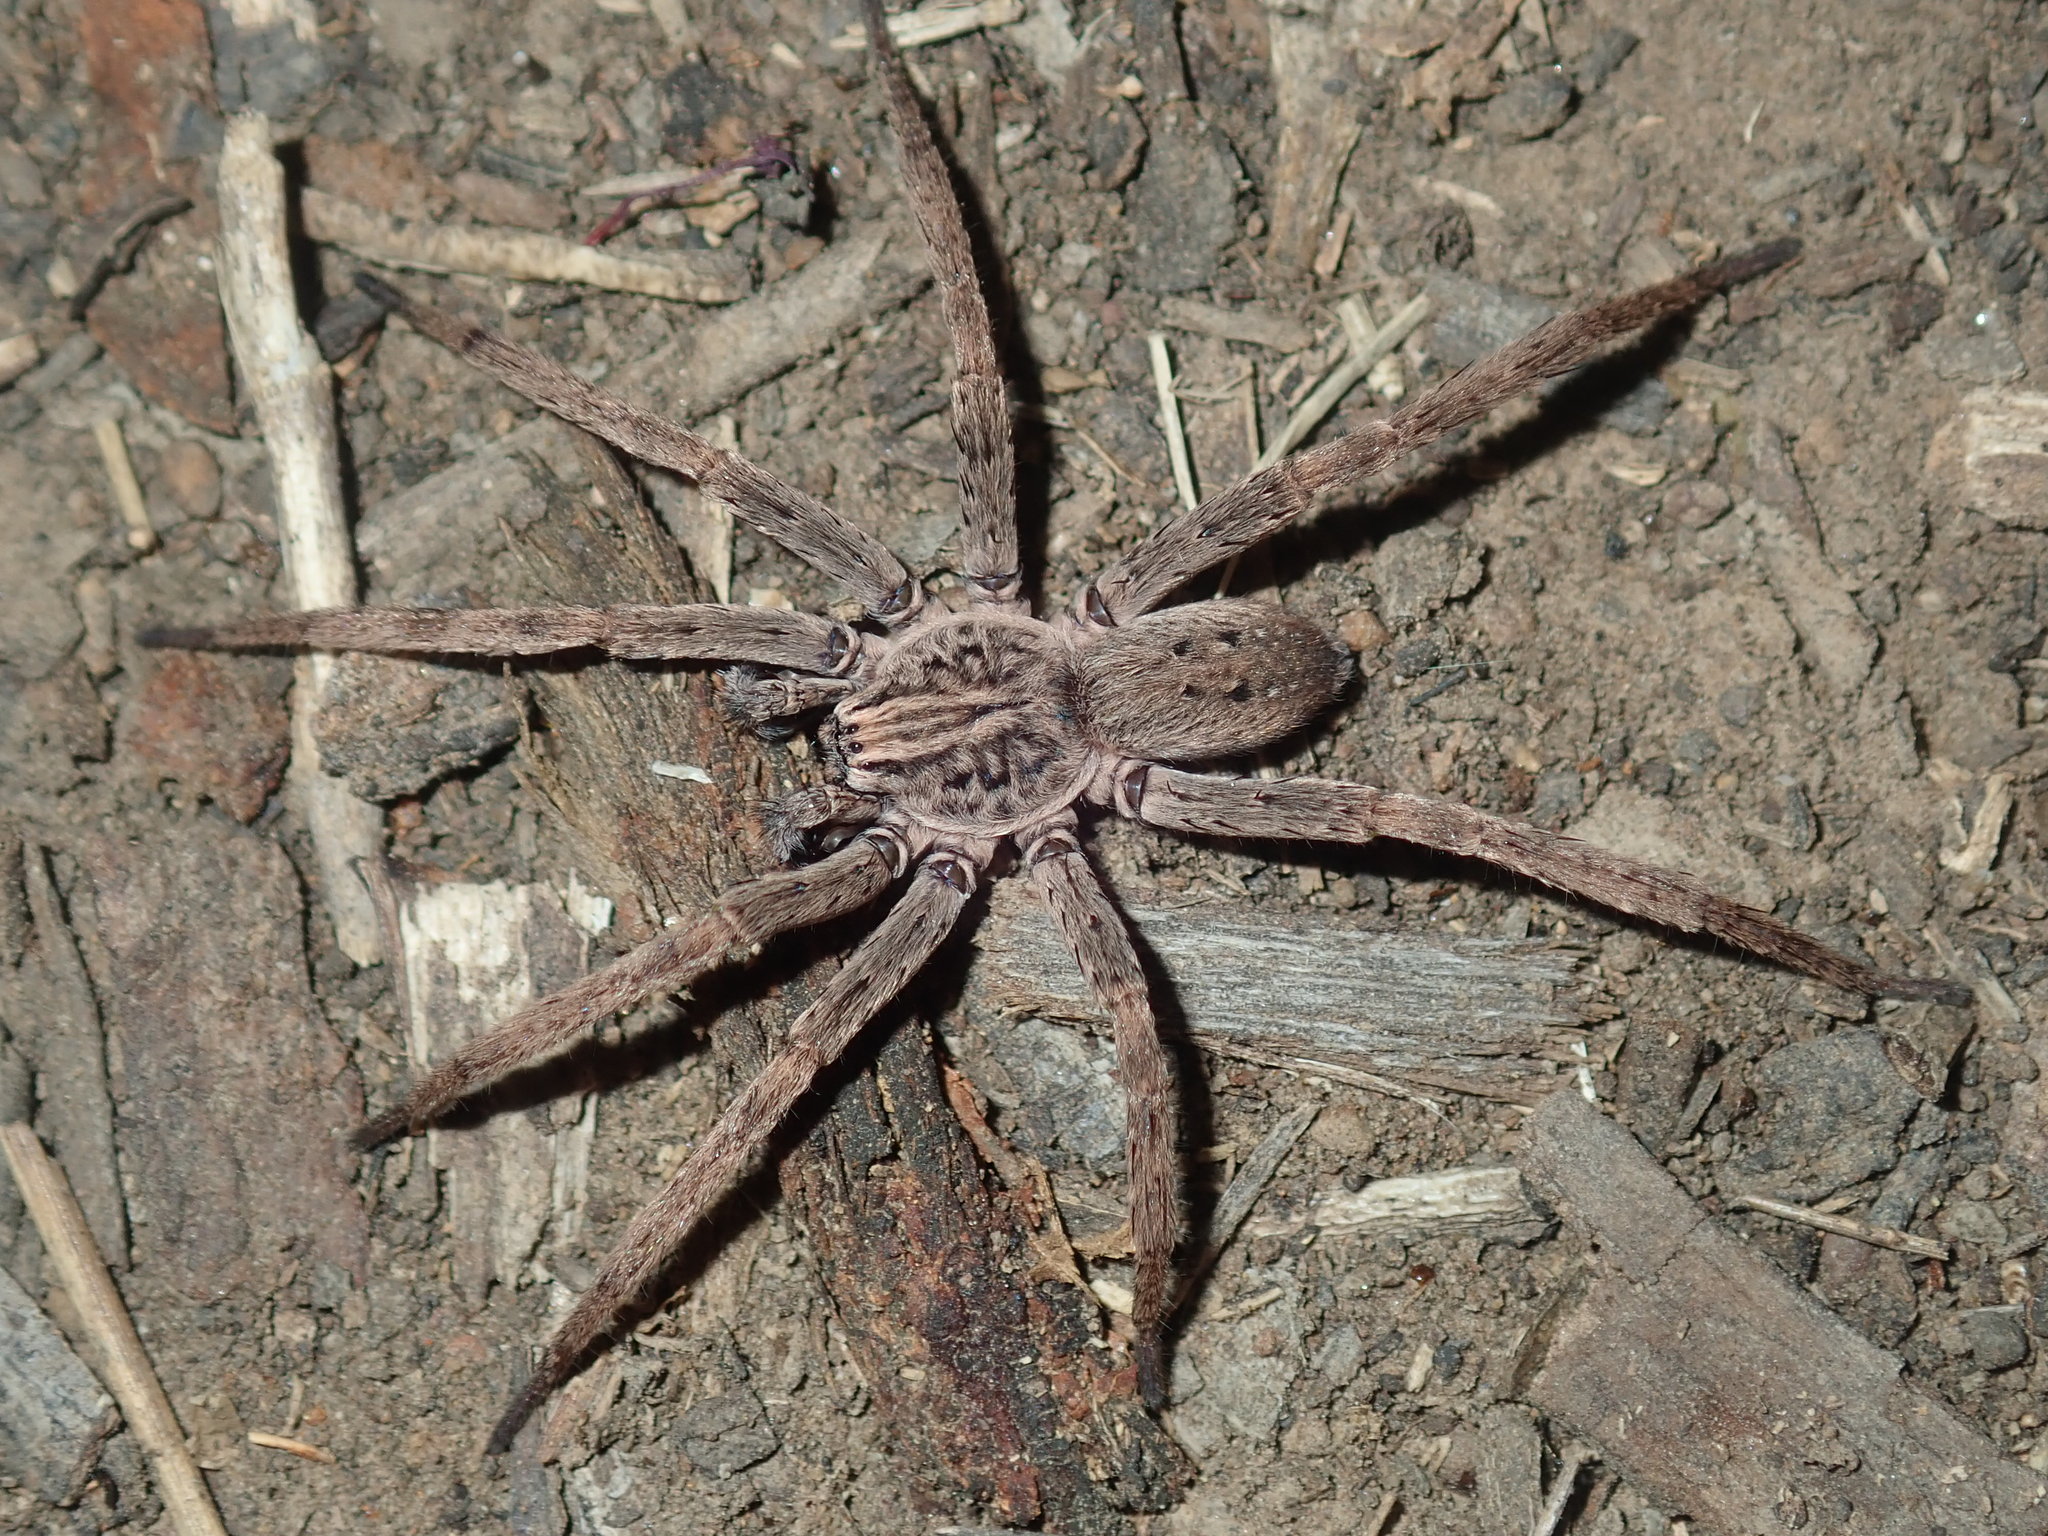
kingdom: Animalia
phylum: Arthropoda
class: Arachnida
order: Araneae
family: Miturgidae
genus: Mituliodon
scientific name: Mituliodon tarantulinus
